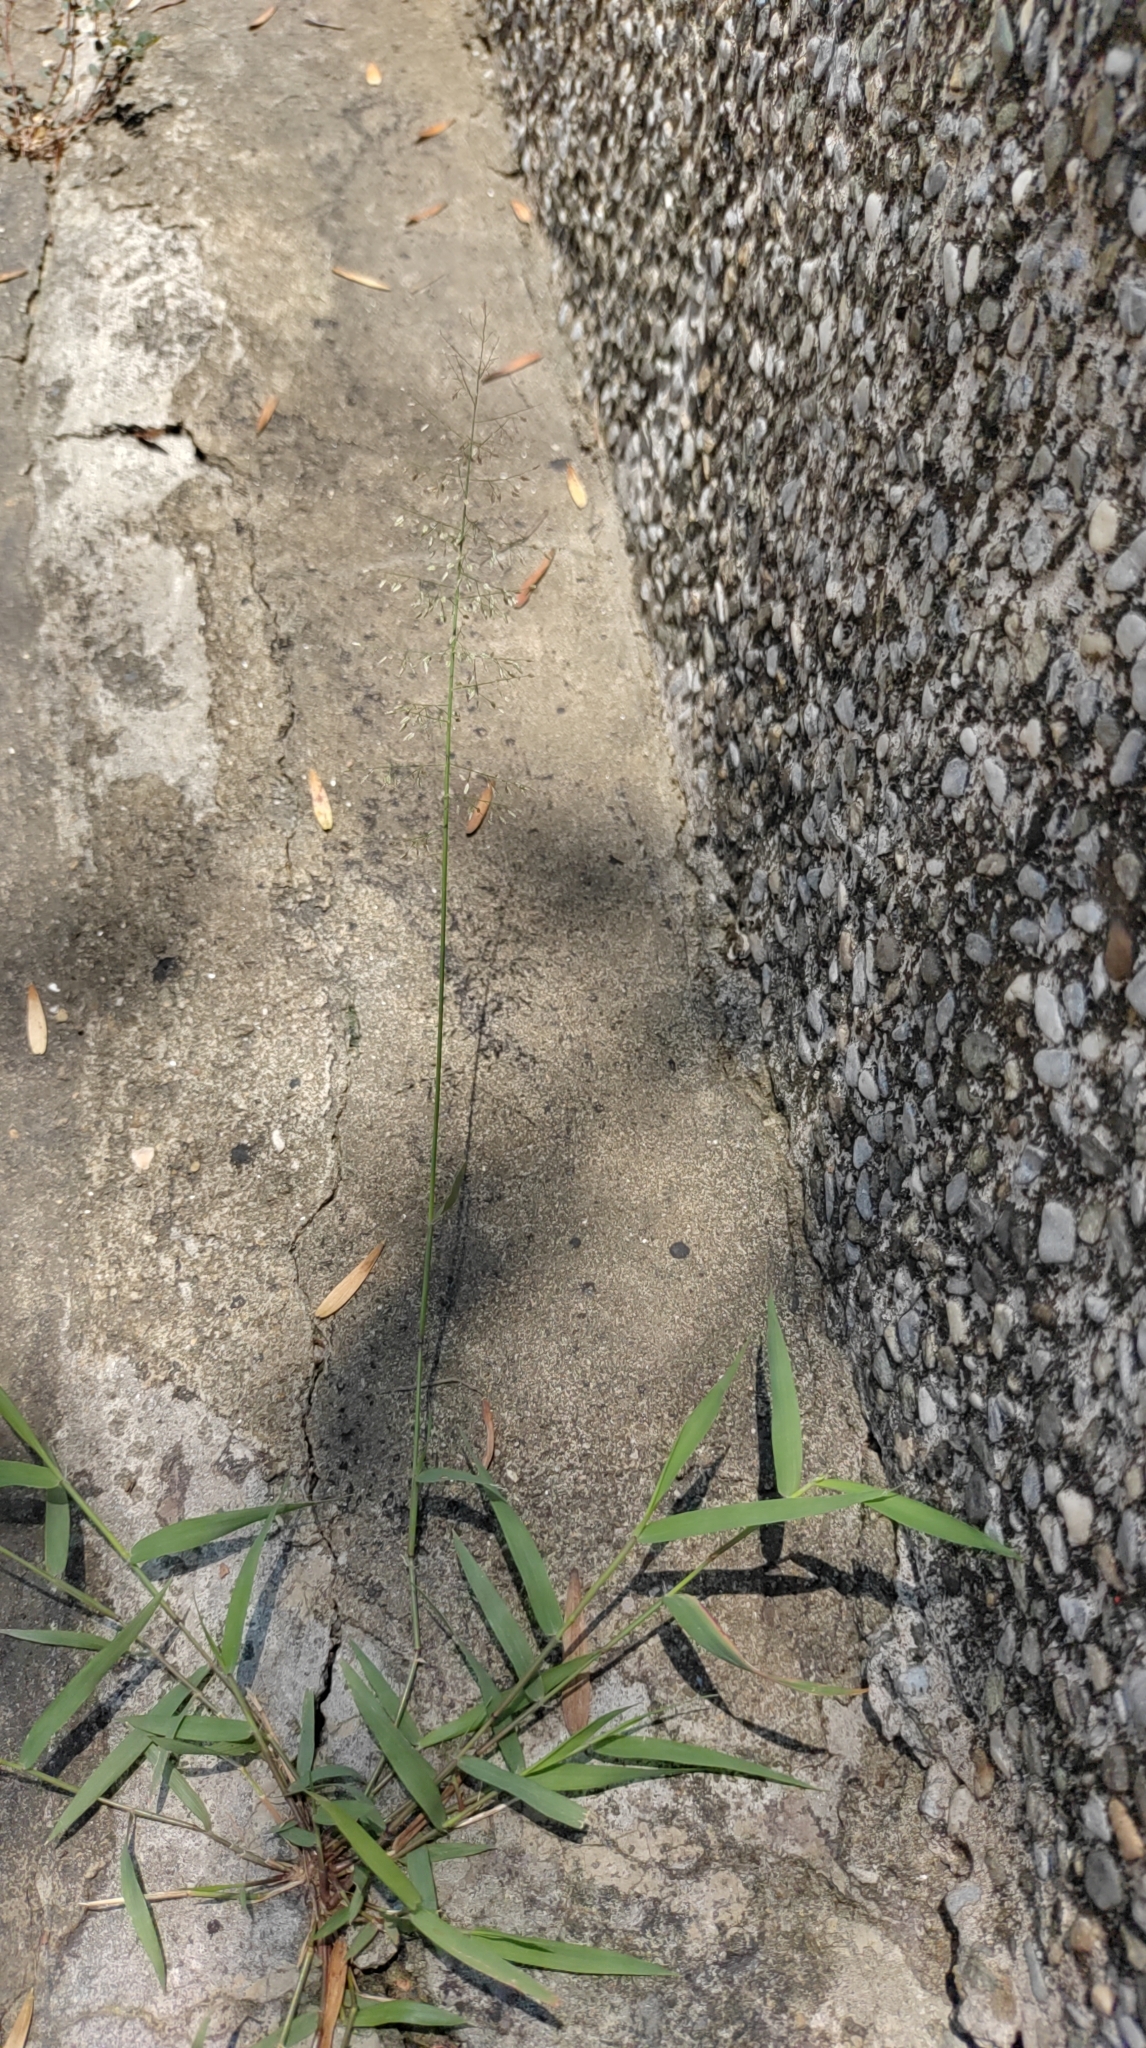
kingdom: Plantae
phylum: Tracheophyta
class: Liliopsida
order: Poales
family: Poaceae
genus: Eragrostis
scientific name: Eragrostis tenella
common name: Japanese lovegrass
